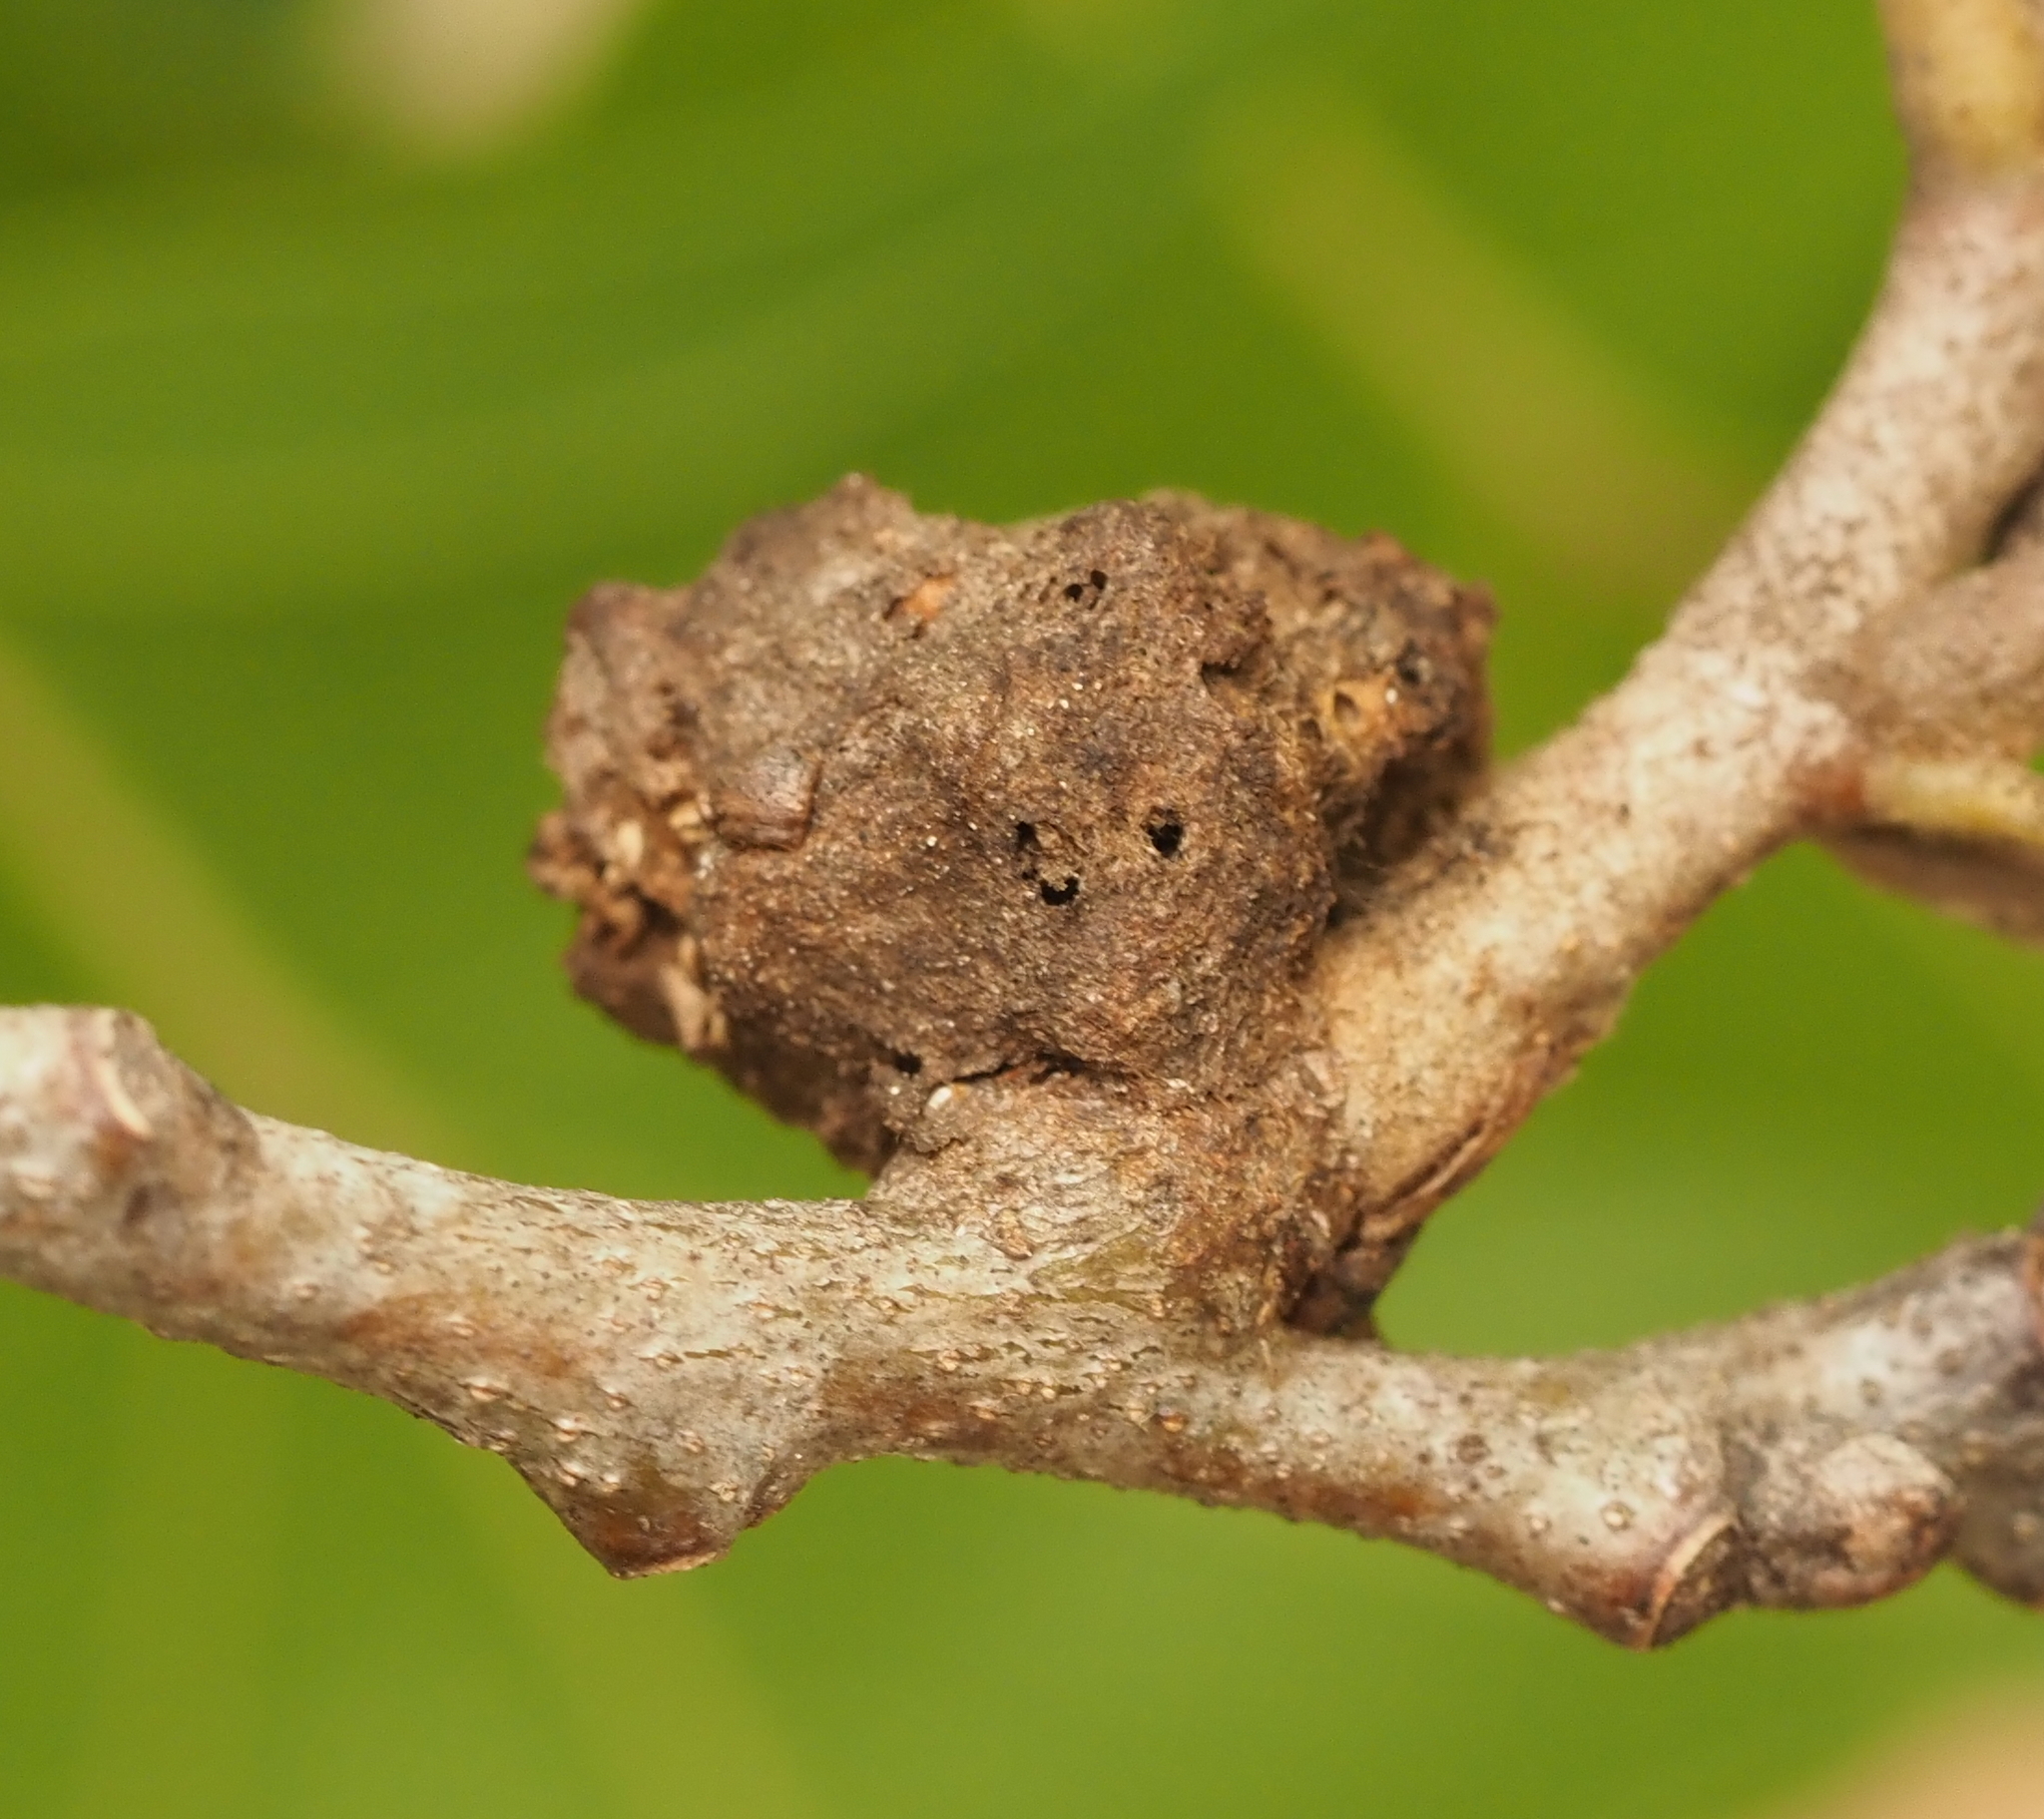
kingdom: Animalia
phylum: Arthropoda
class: Insecta
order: Hymenoptera
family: Cynipidae
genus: Callirhytis
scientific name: Callirhytis
